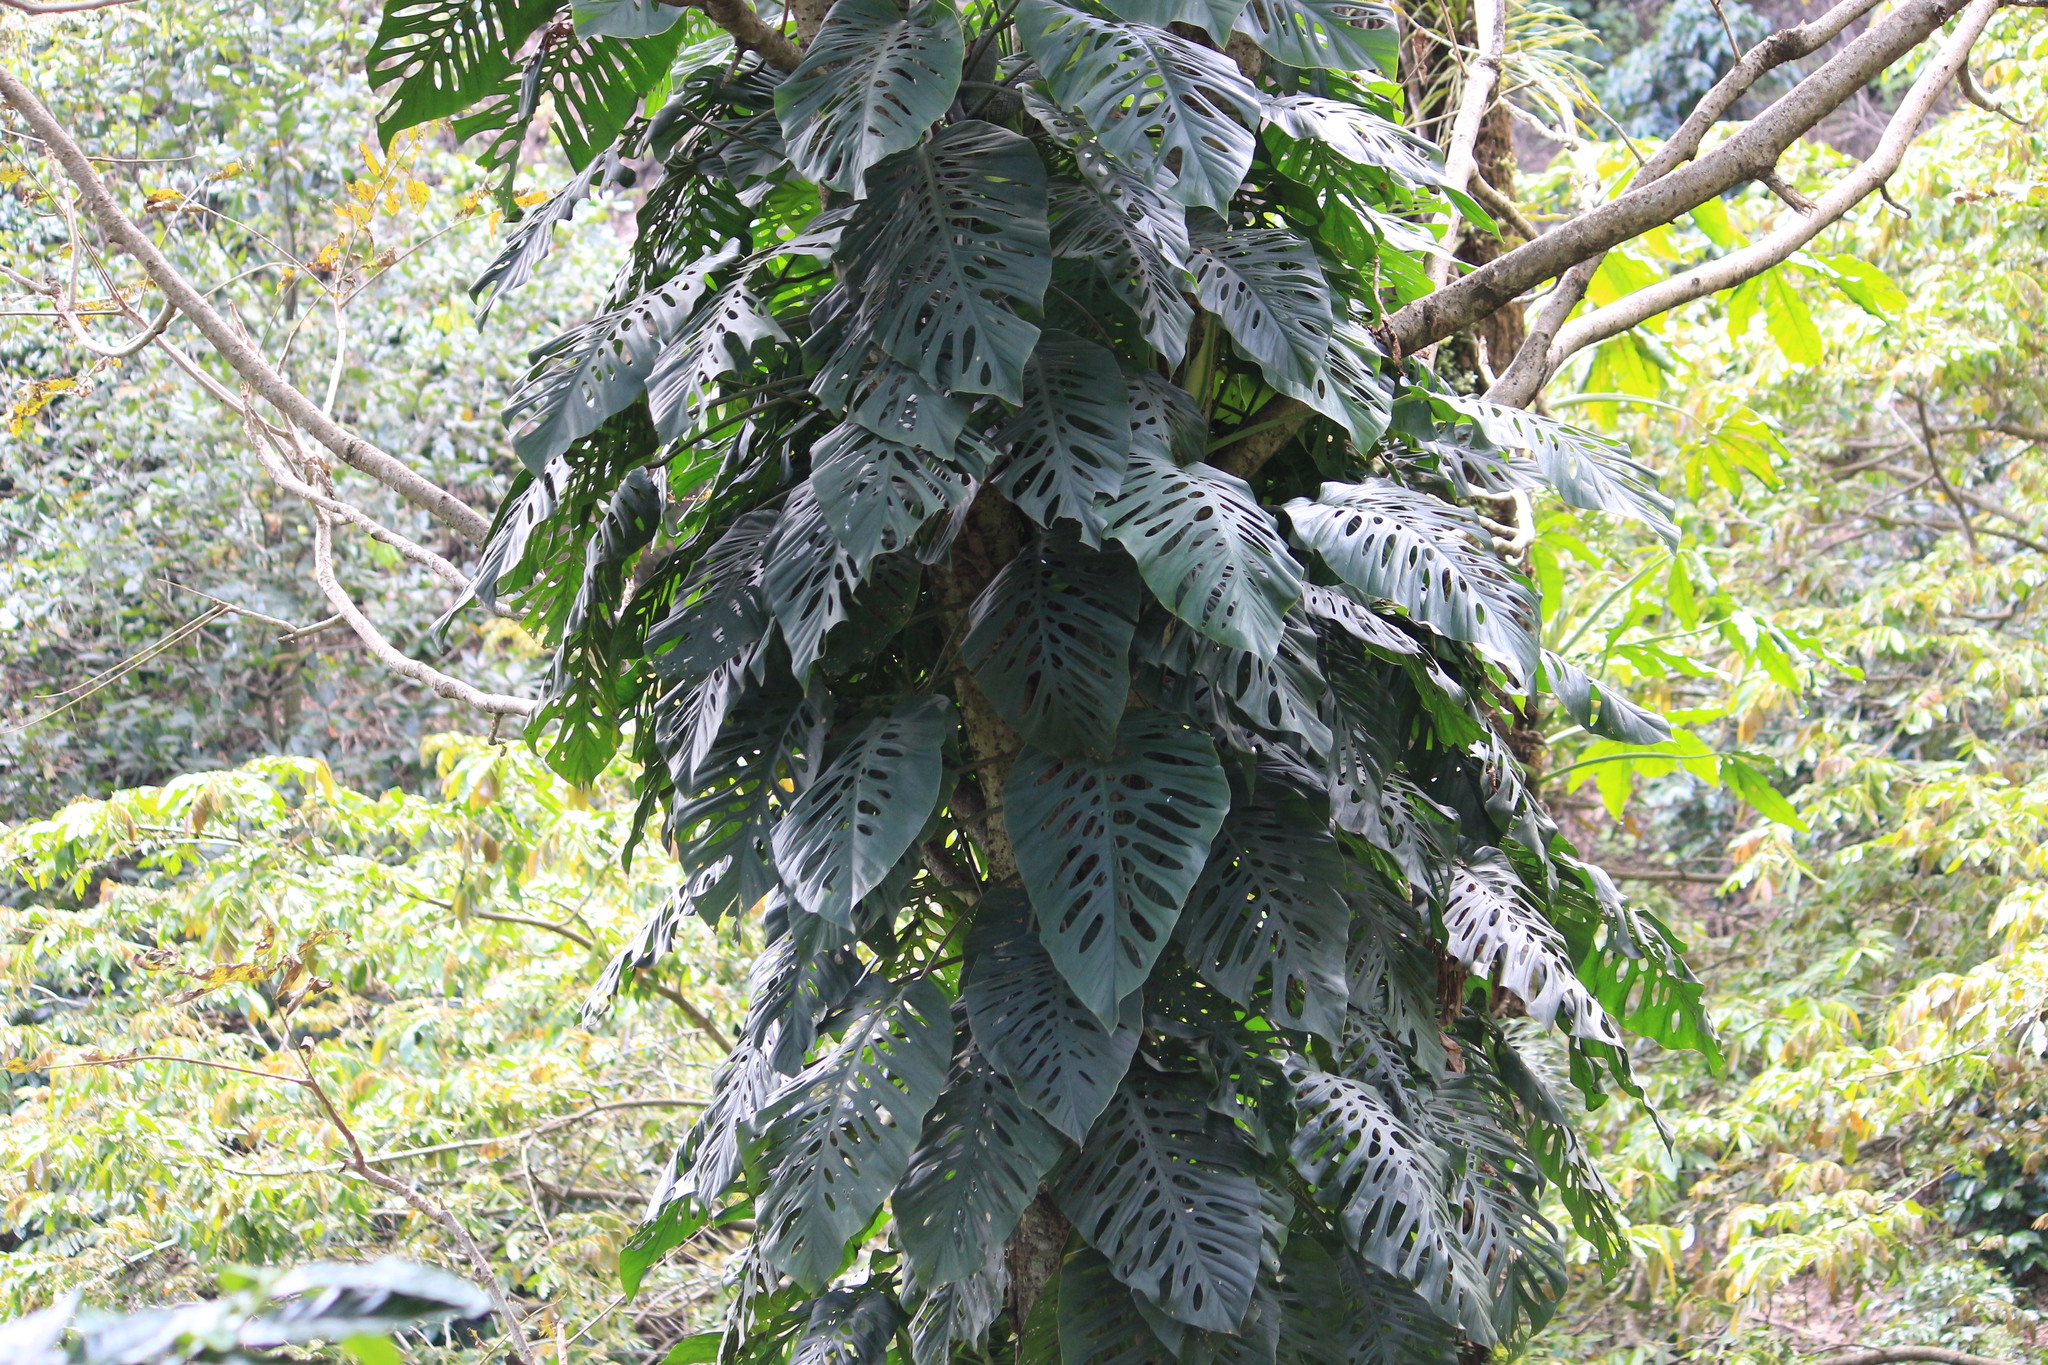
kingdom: Plantae
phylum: Tracheophyta
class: Liliopsida
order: Alismatales
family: Araceae
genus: Monstera
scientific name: Monstera siltepecana
